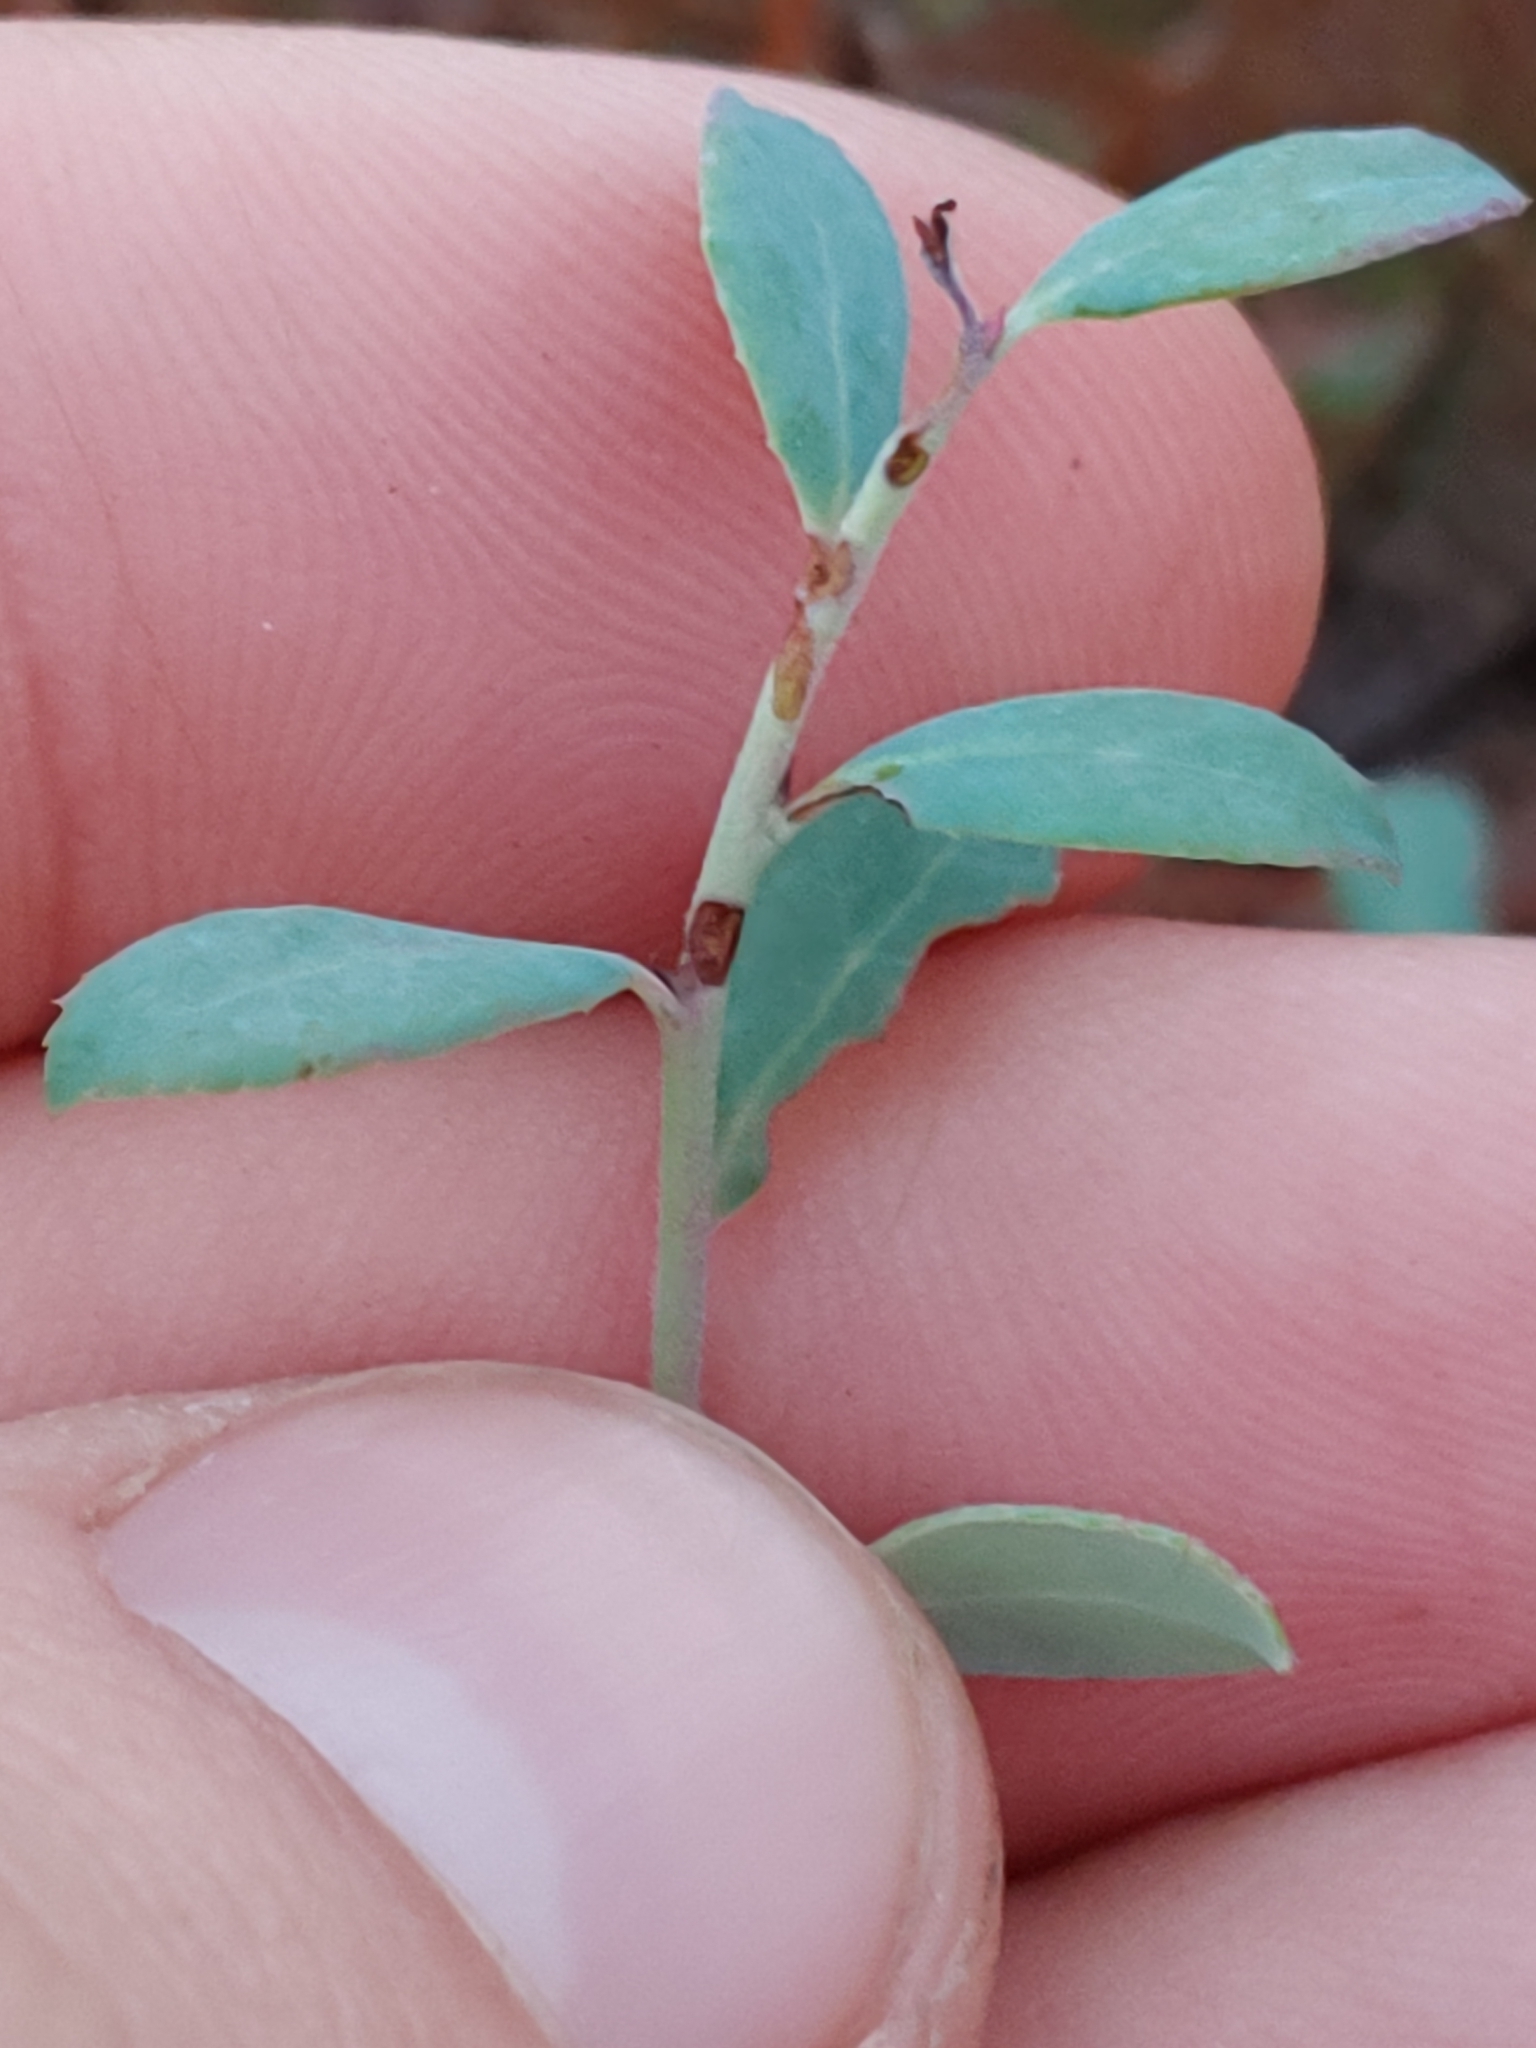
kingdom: Plantae
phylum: Tracheophyta
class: Magnoliopsida
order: Ericales
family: Ericaceae
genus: Vaccinium
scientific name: Vaccinium darrowii
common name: Darrow's blueberry
